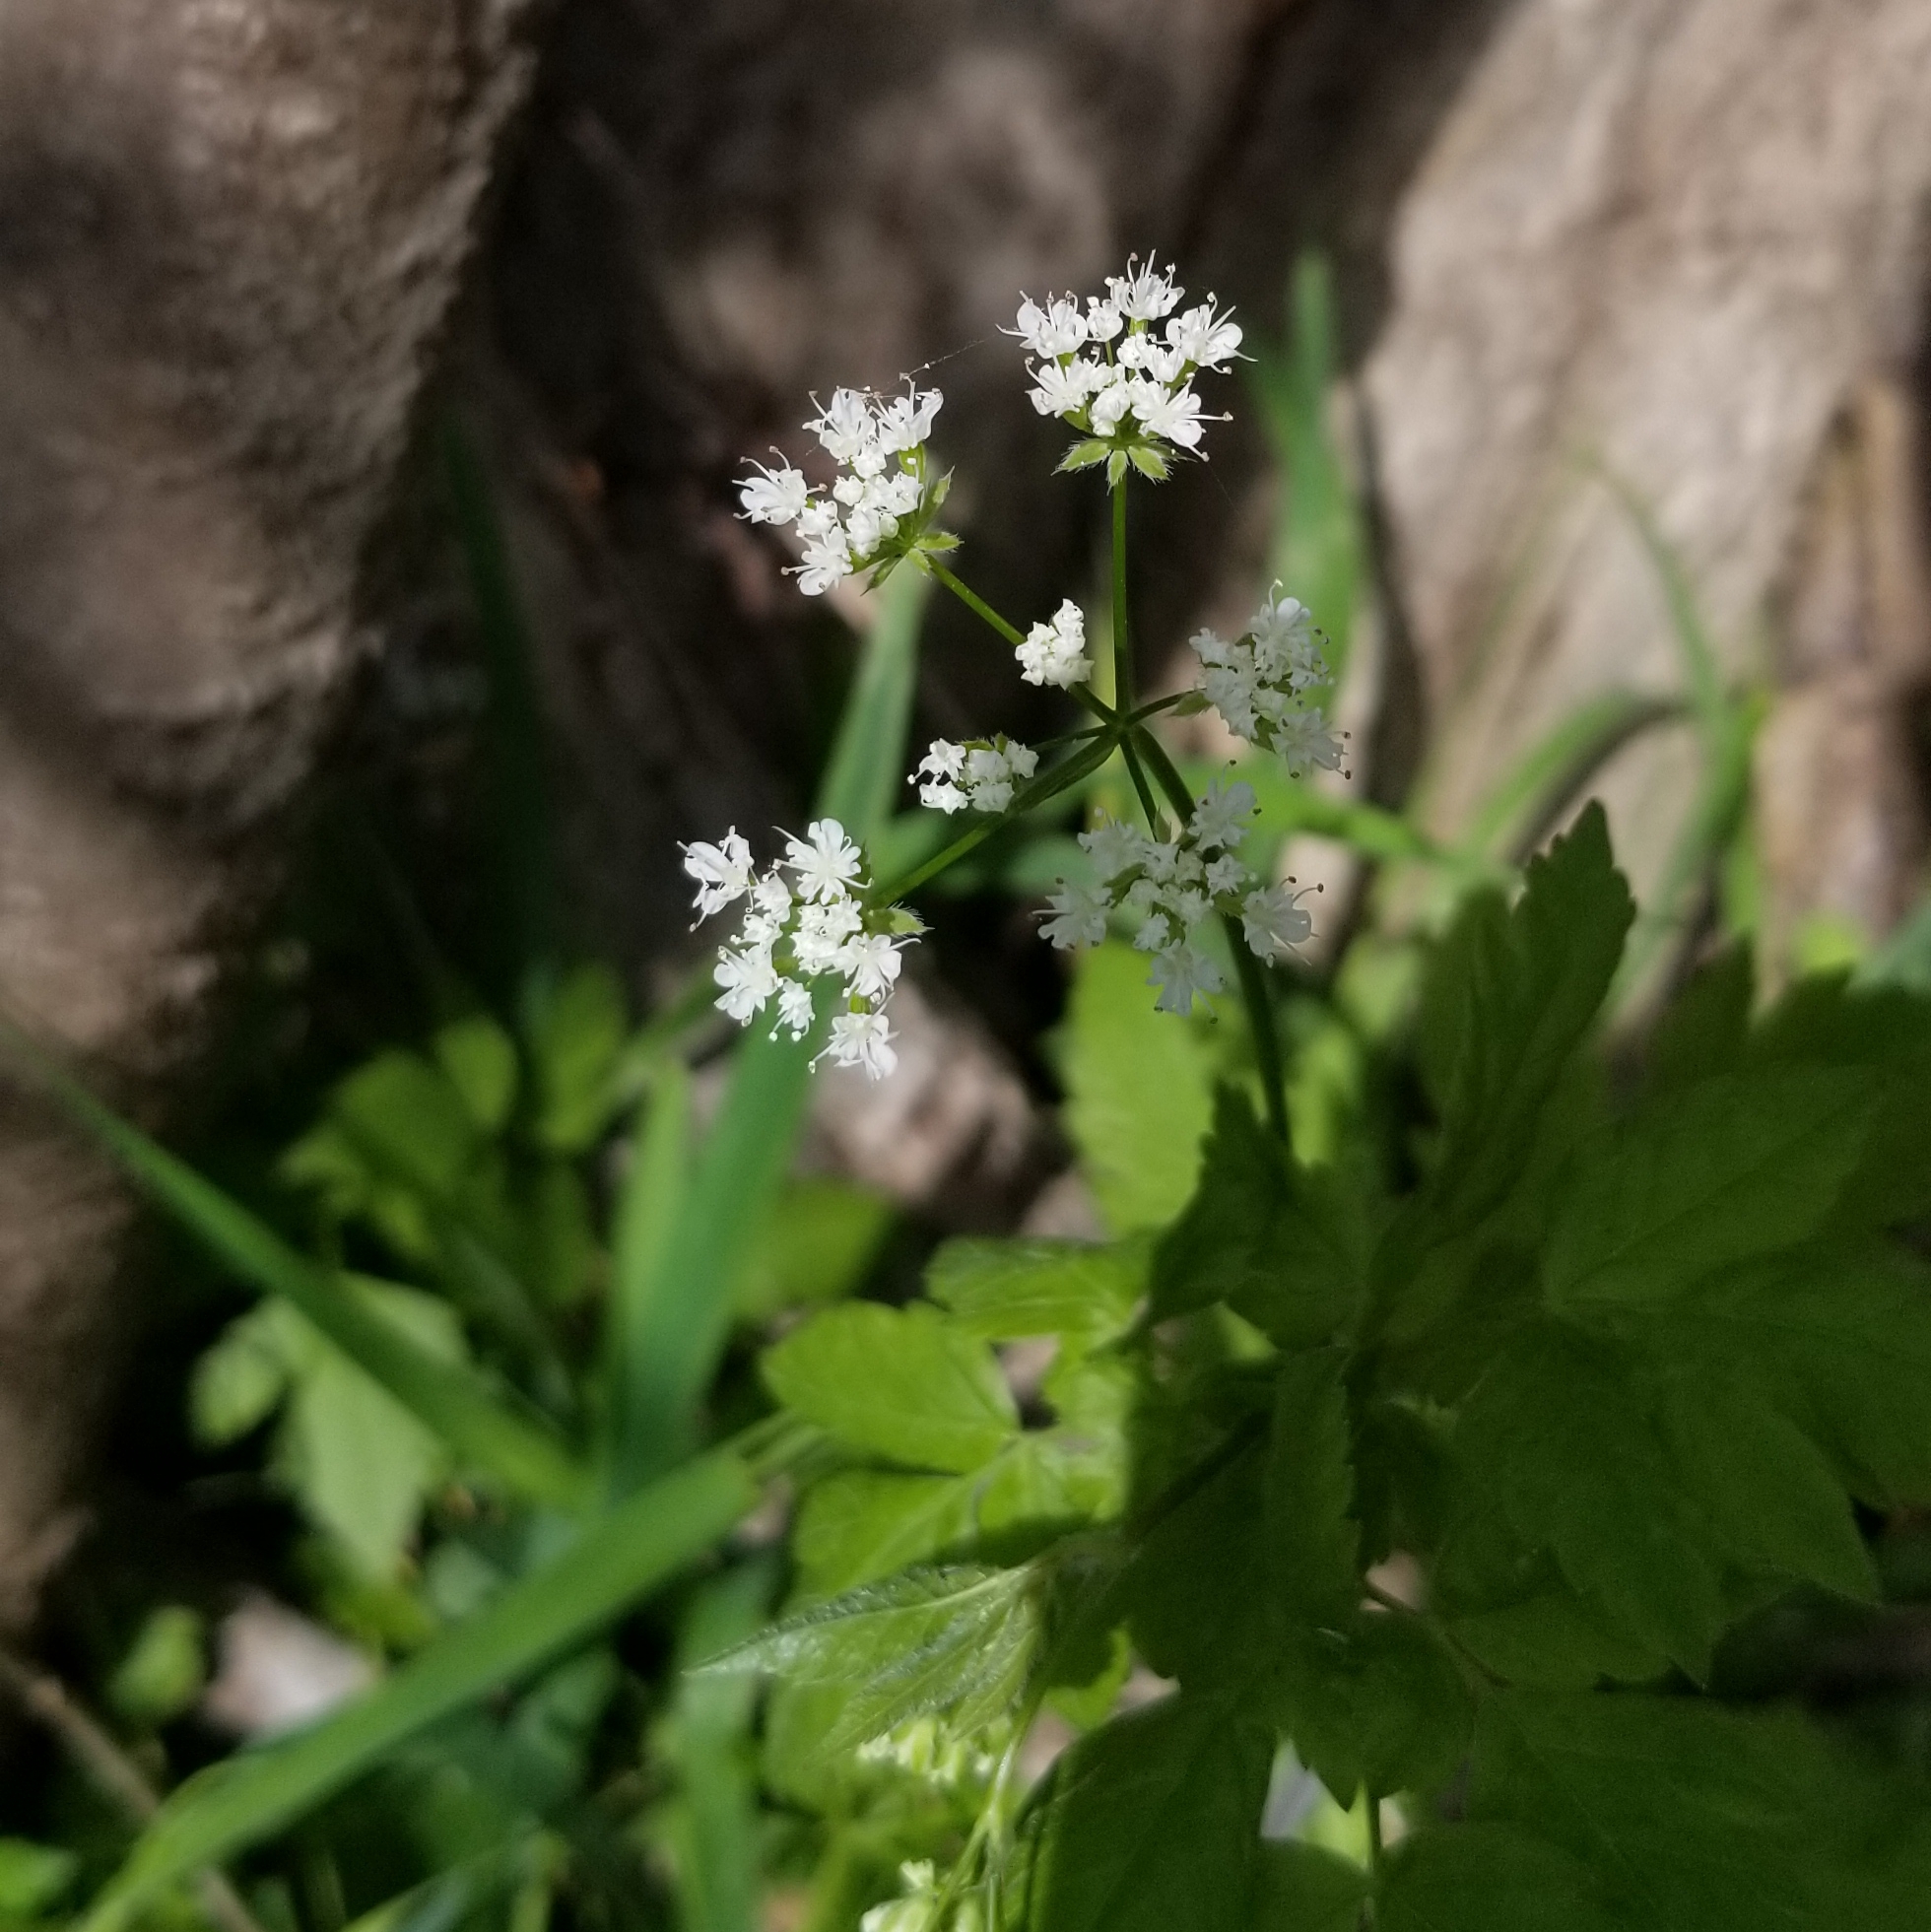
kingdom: Plantae
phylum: Tracheophyta
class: Magnoliopsida
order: Apiales
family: Apiaceae
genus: Osmorhiza
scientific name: Osmorhiza longistylis
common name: Smooth sweet cicely
